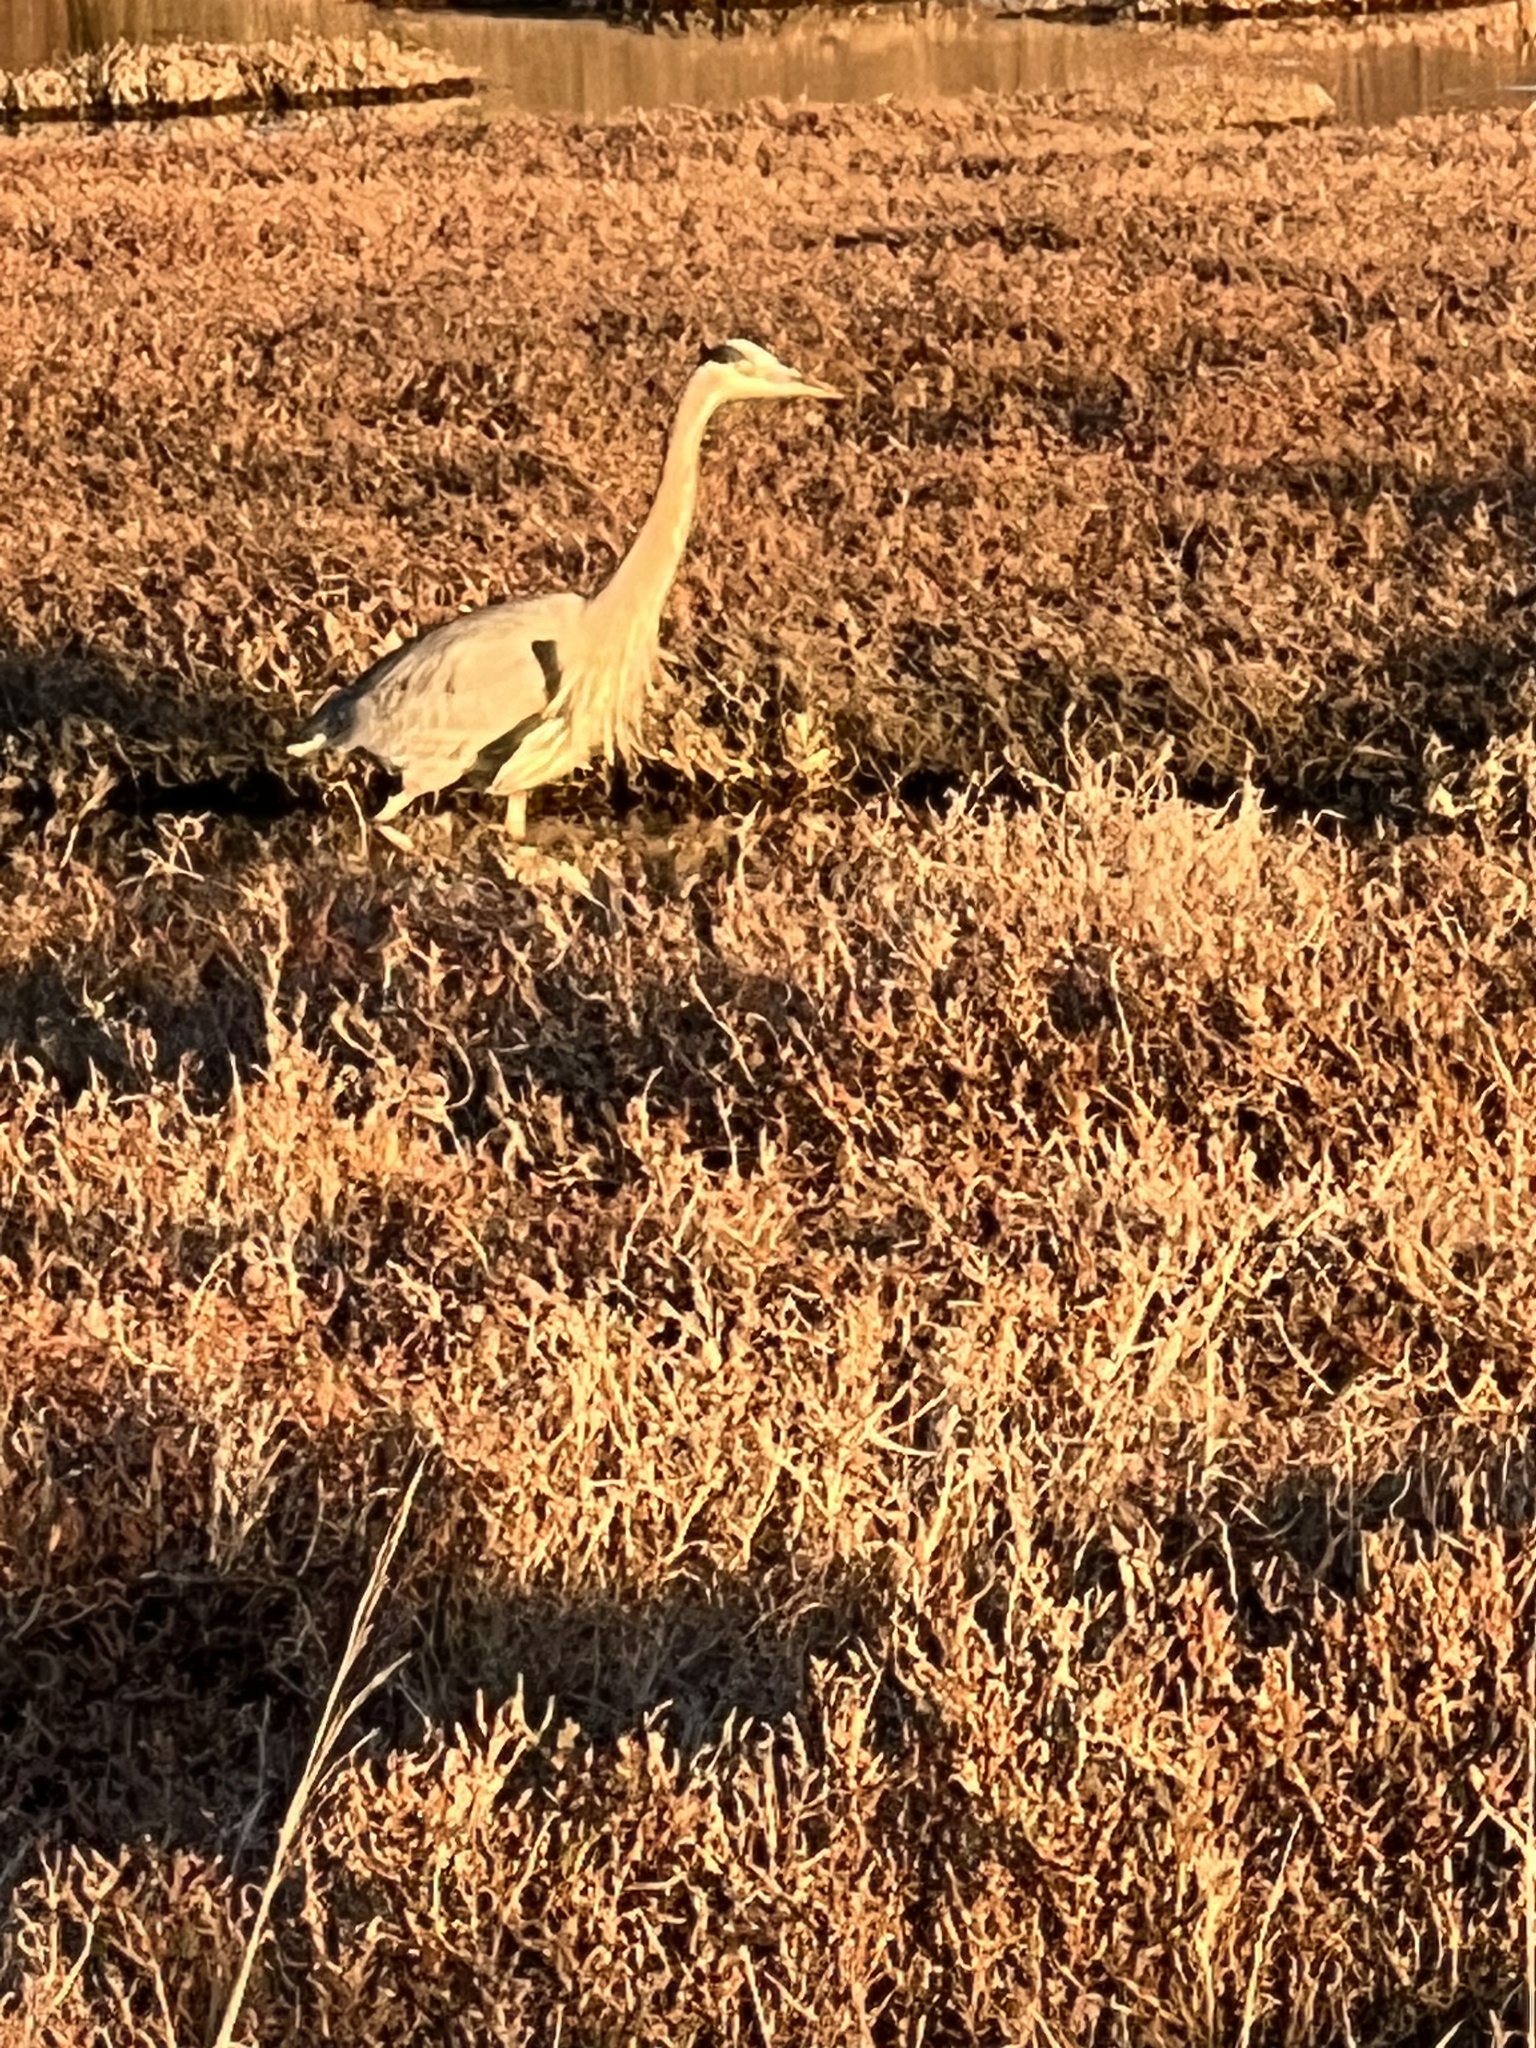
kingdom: Animalia
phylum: Chordata
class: Aves
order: Pelecaniformes
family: Ardeidae
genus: Ardea
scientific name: Ardea herodias
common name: Great blue heron
